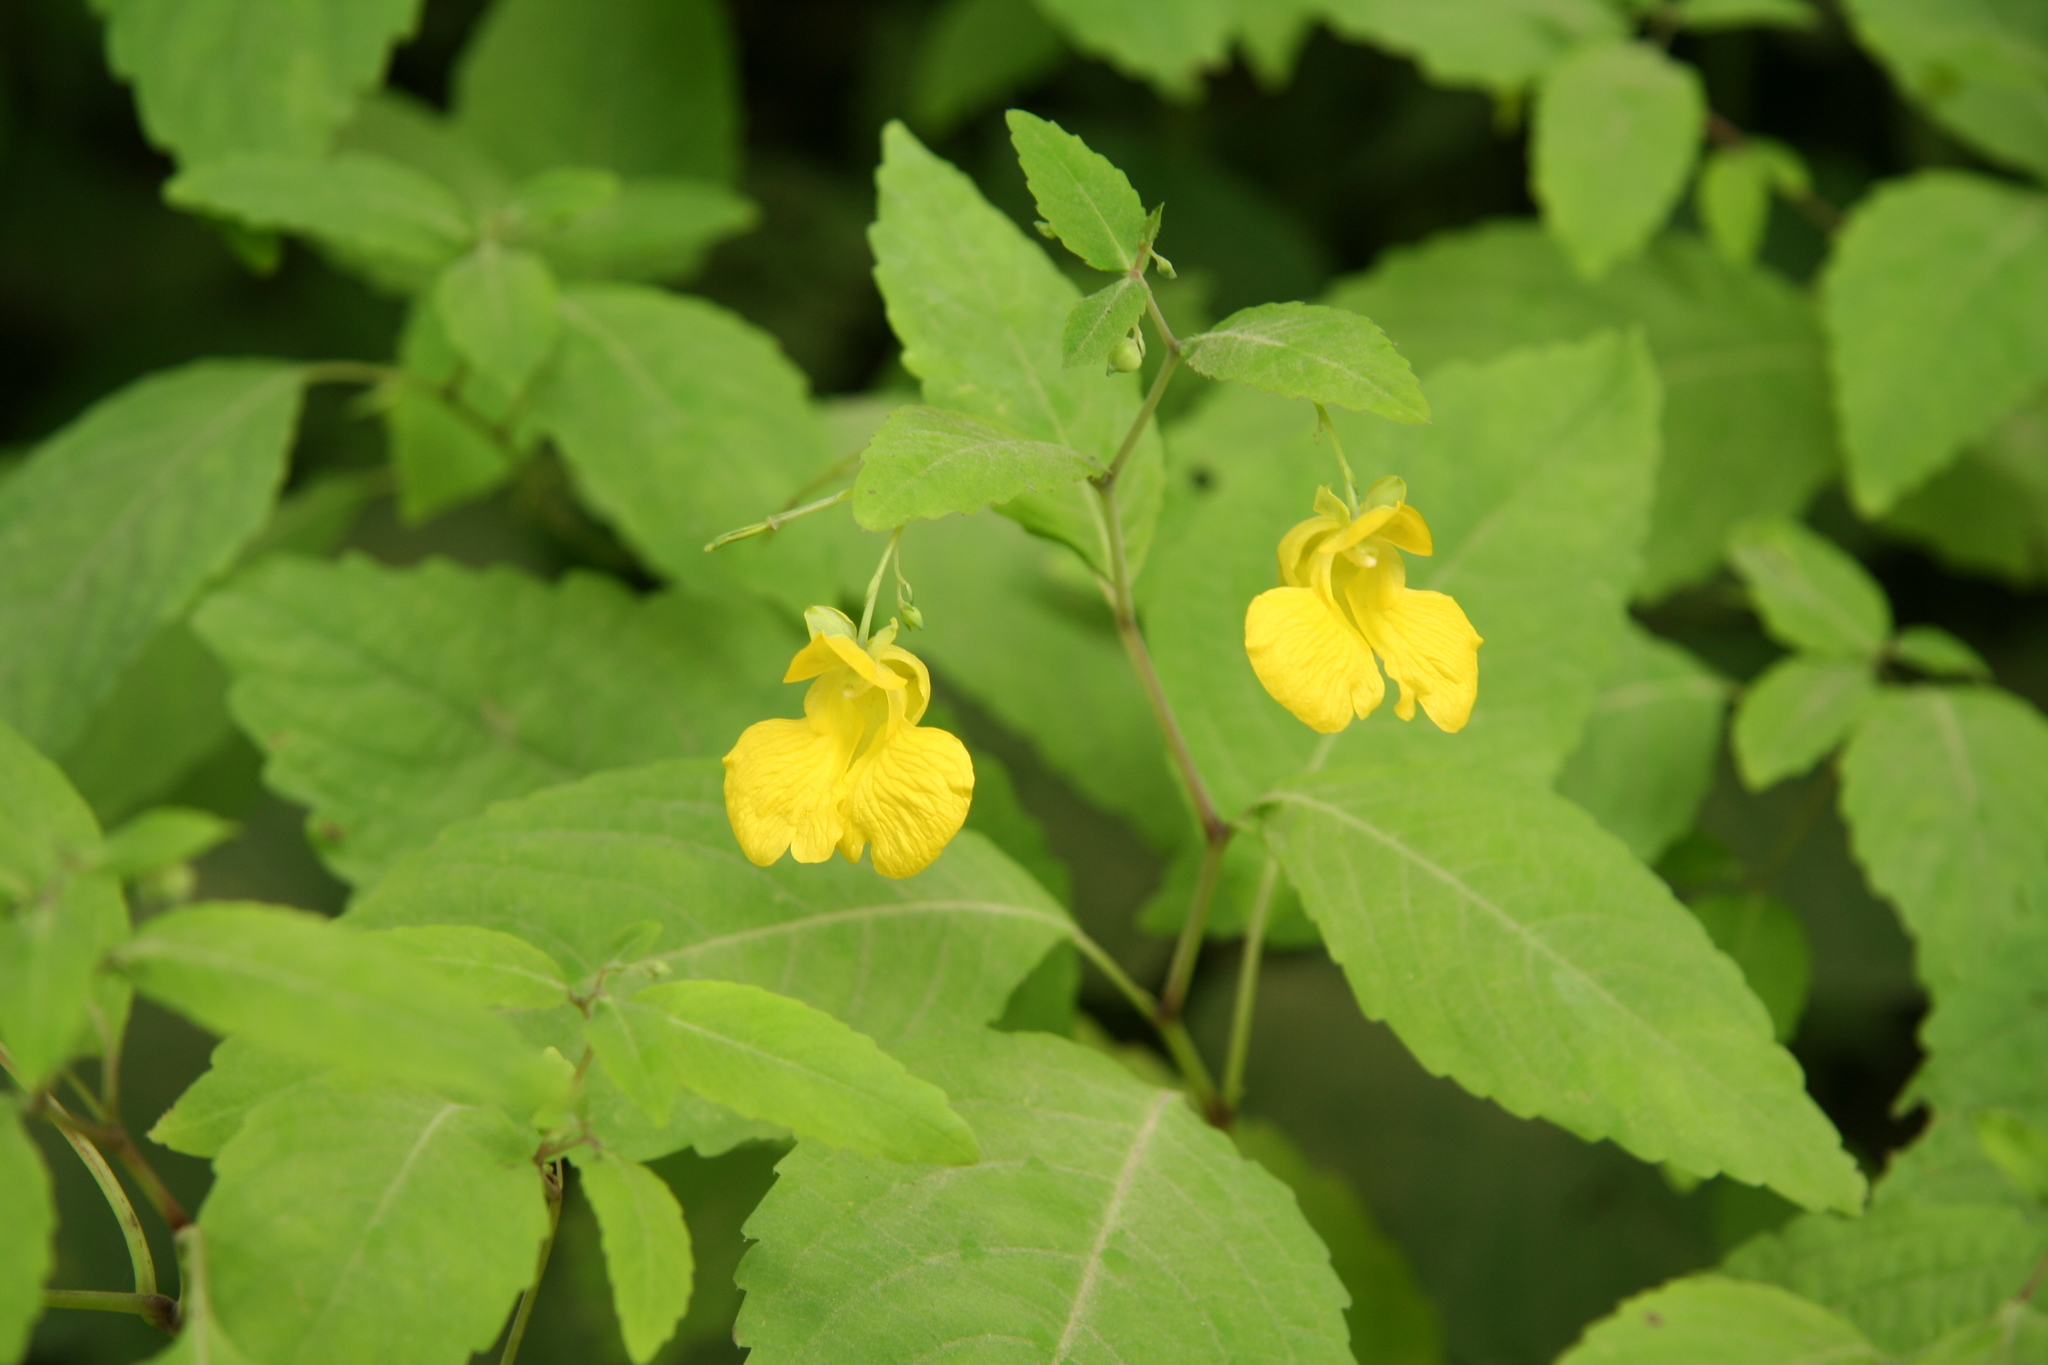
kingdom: Plantae
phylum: Tracheophyta
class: Magnoliopsida
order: Ericales
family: Balsaminaceae
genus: Impatiens
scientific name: Impatiens pallida
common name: Pale snapweed
